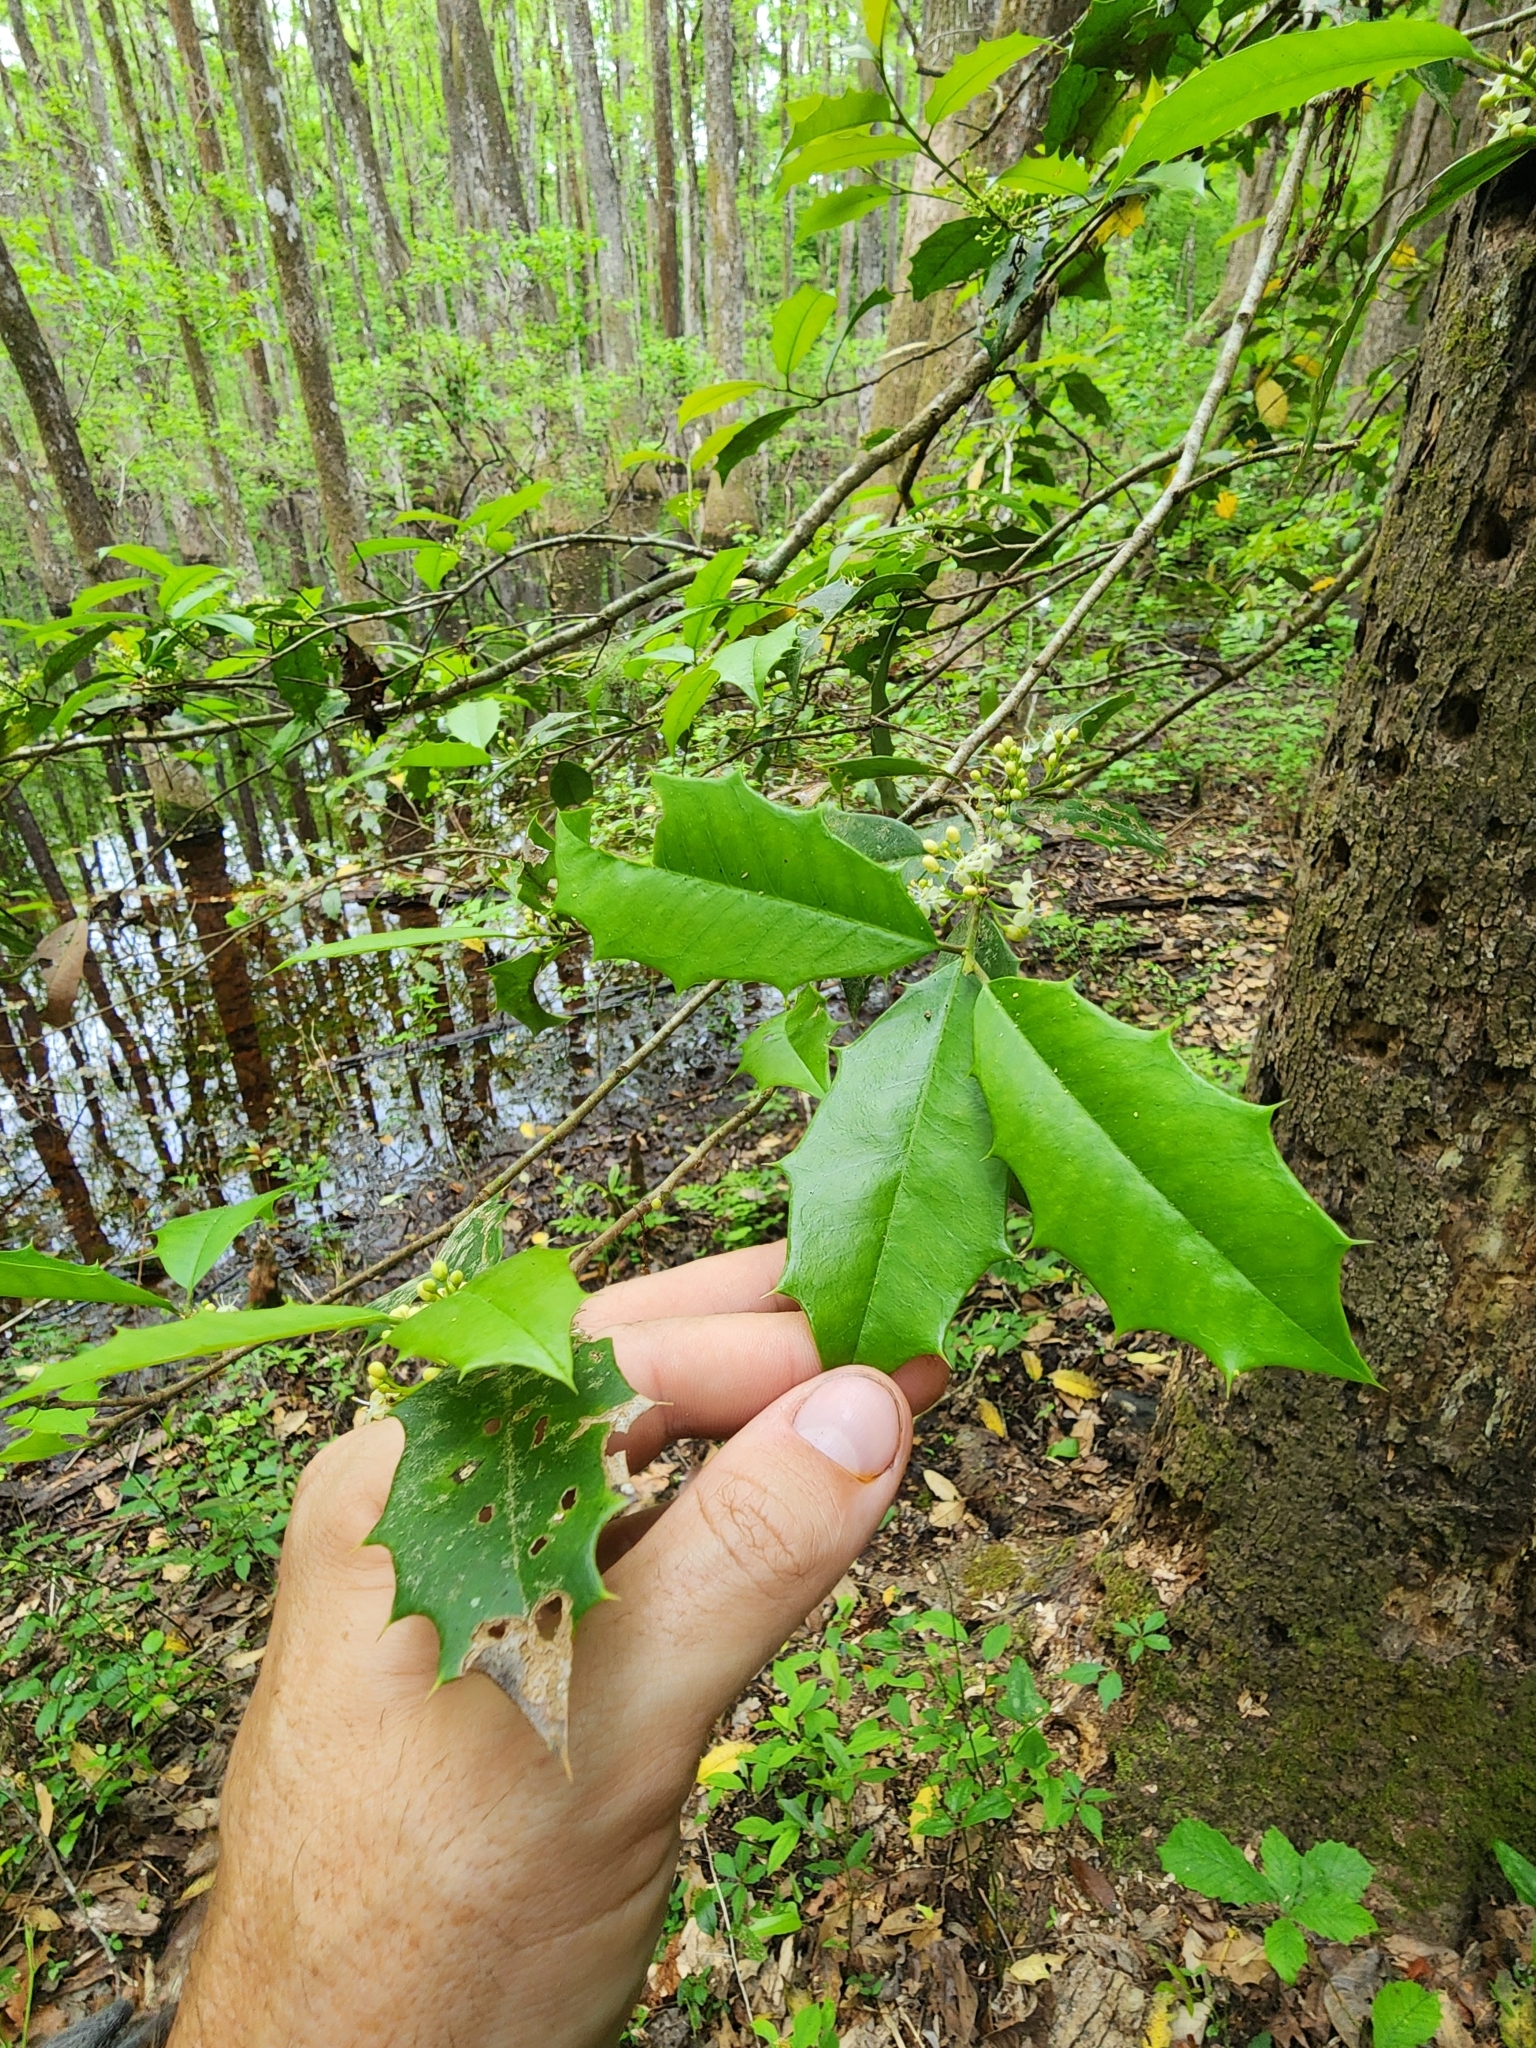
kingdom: Plantae
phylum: Tracheophyta
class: Magnoliopsida
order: Aquifoliales
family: Aquifoliaceae
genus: Ilex
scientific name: Ilex opaca
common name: American holly
